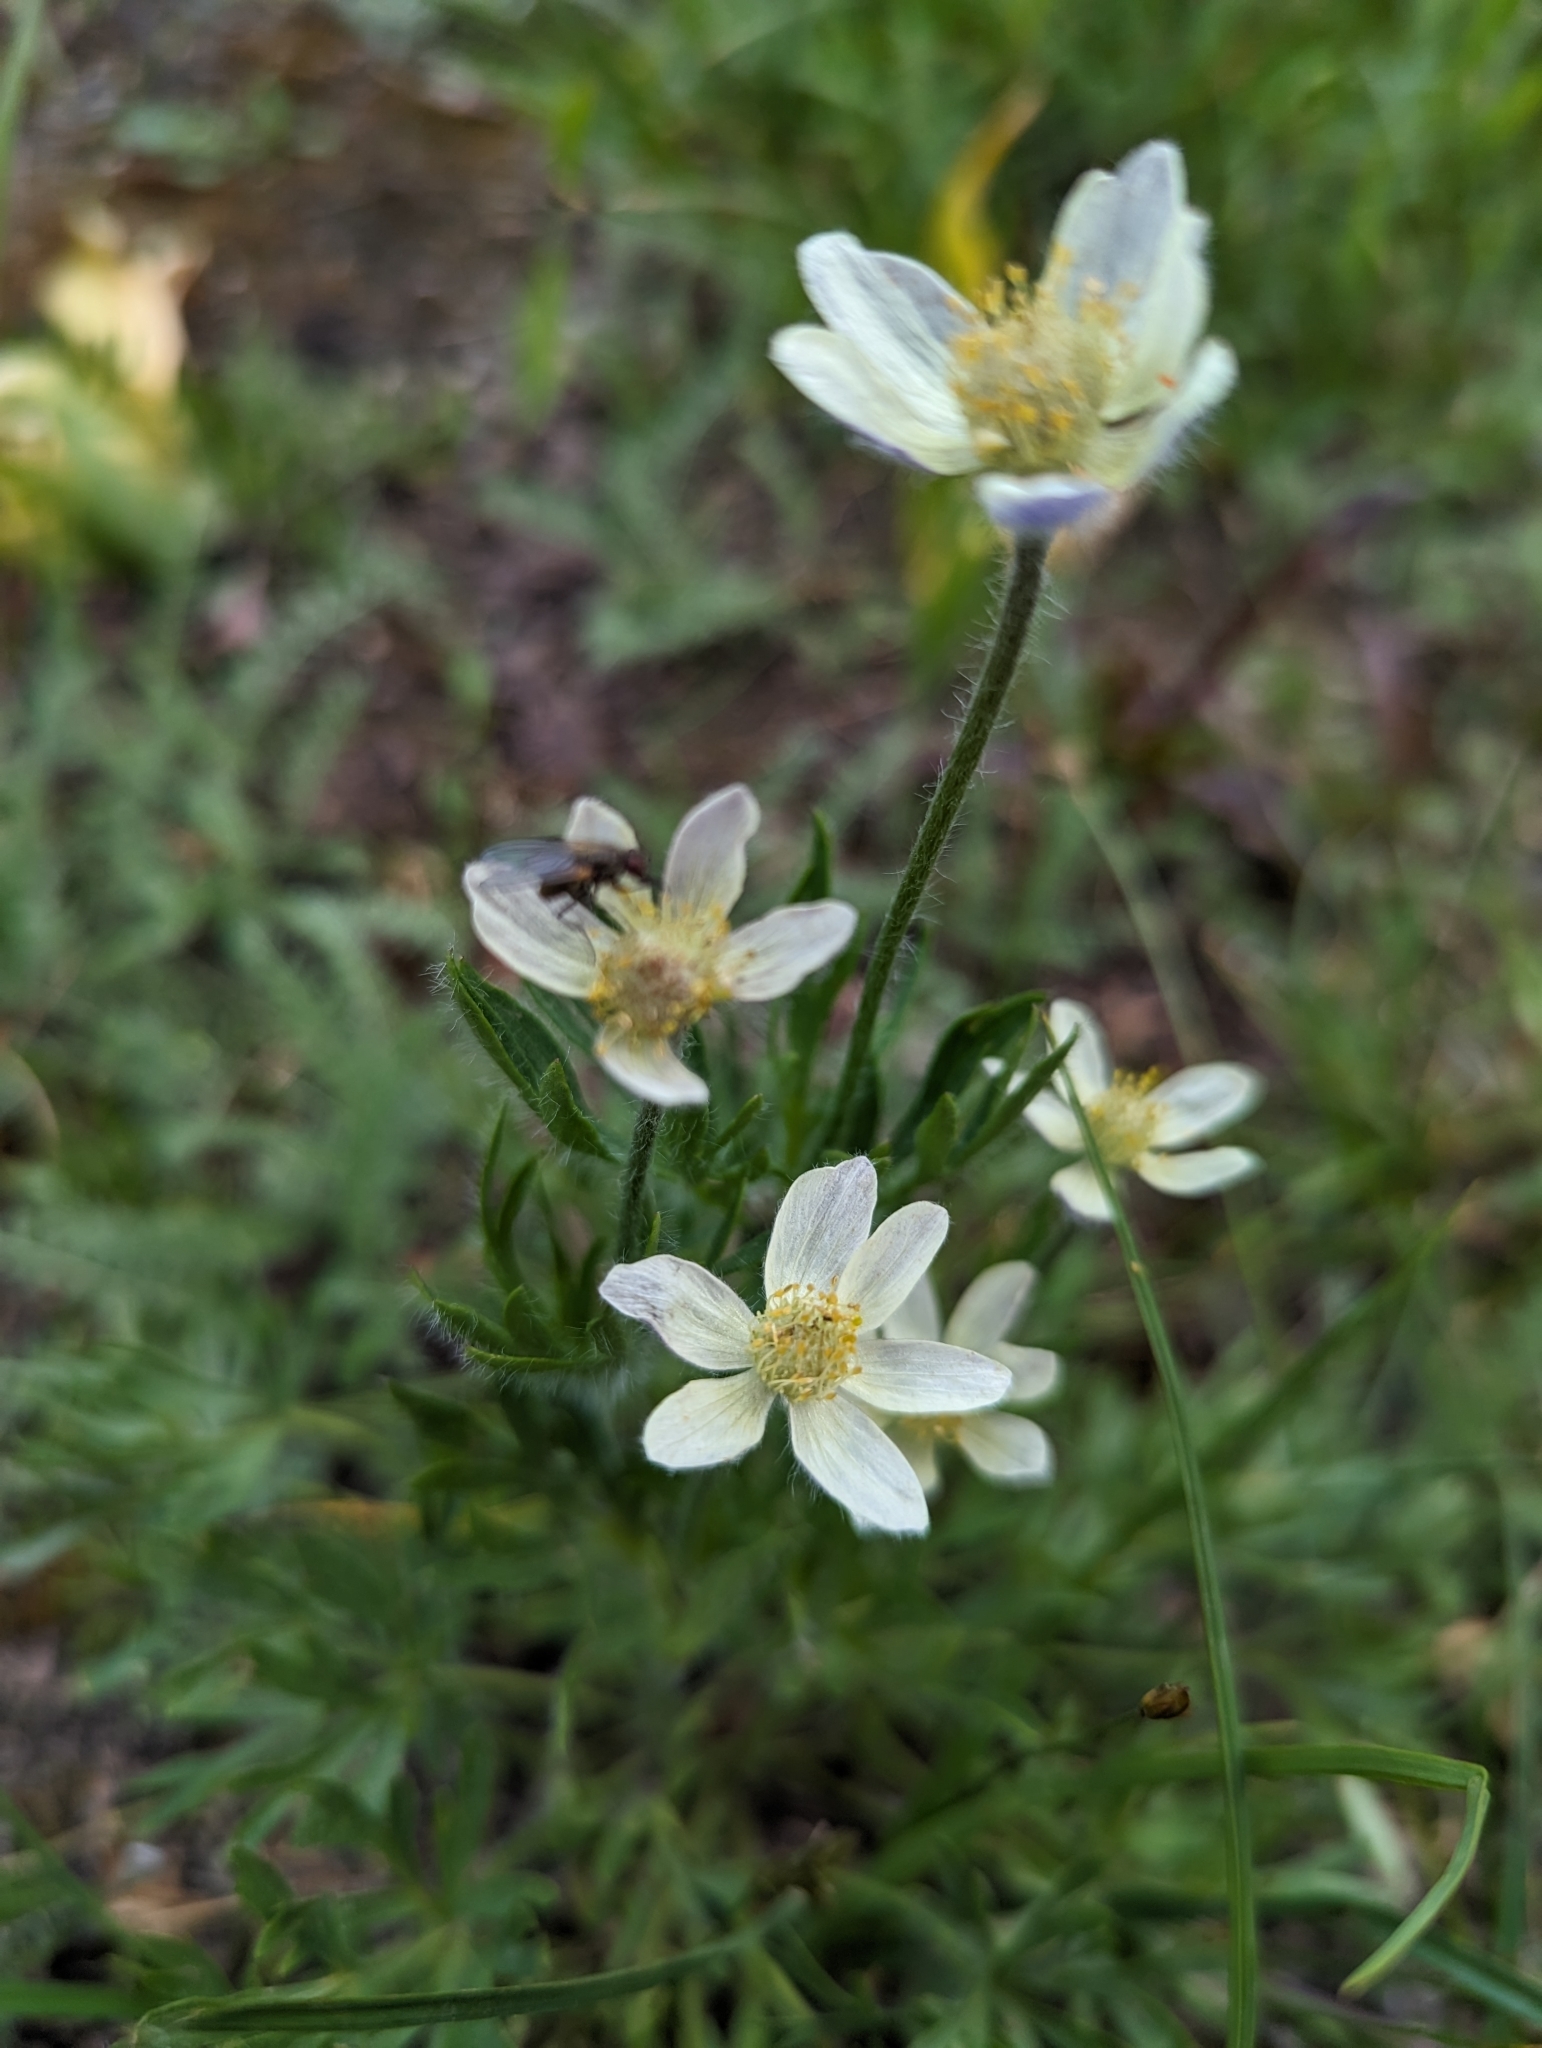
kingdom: Plantae
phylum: Tracheophyta
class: Magnoliopsida
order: Ranunculales
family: Ranunculaceae
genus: Anemone
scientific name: Anemone multifida
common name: Bird's-foot anemone
